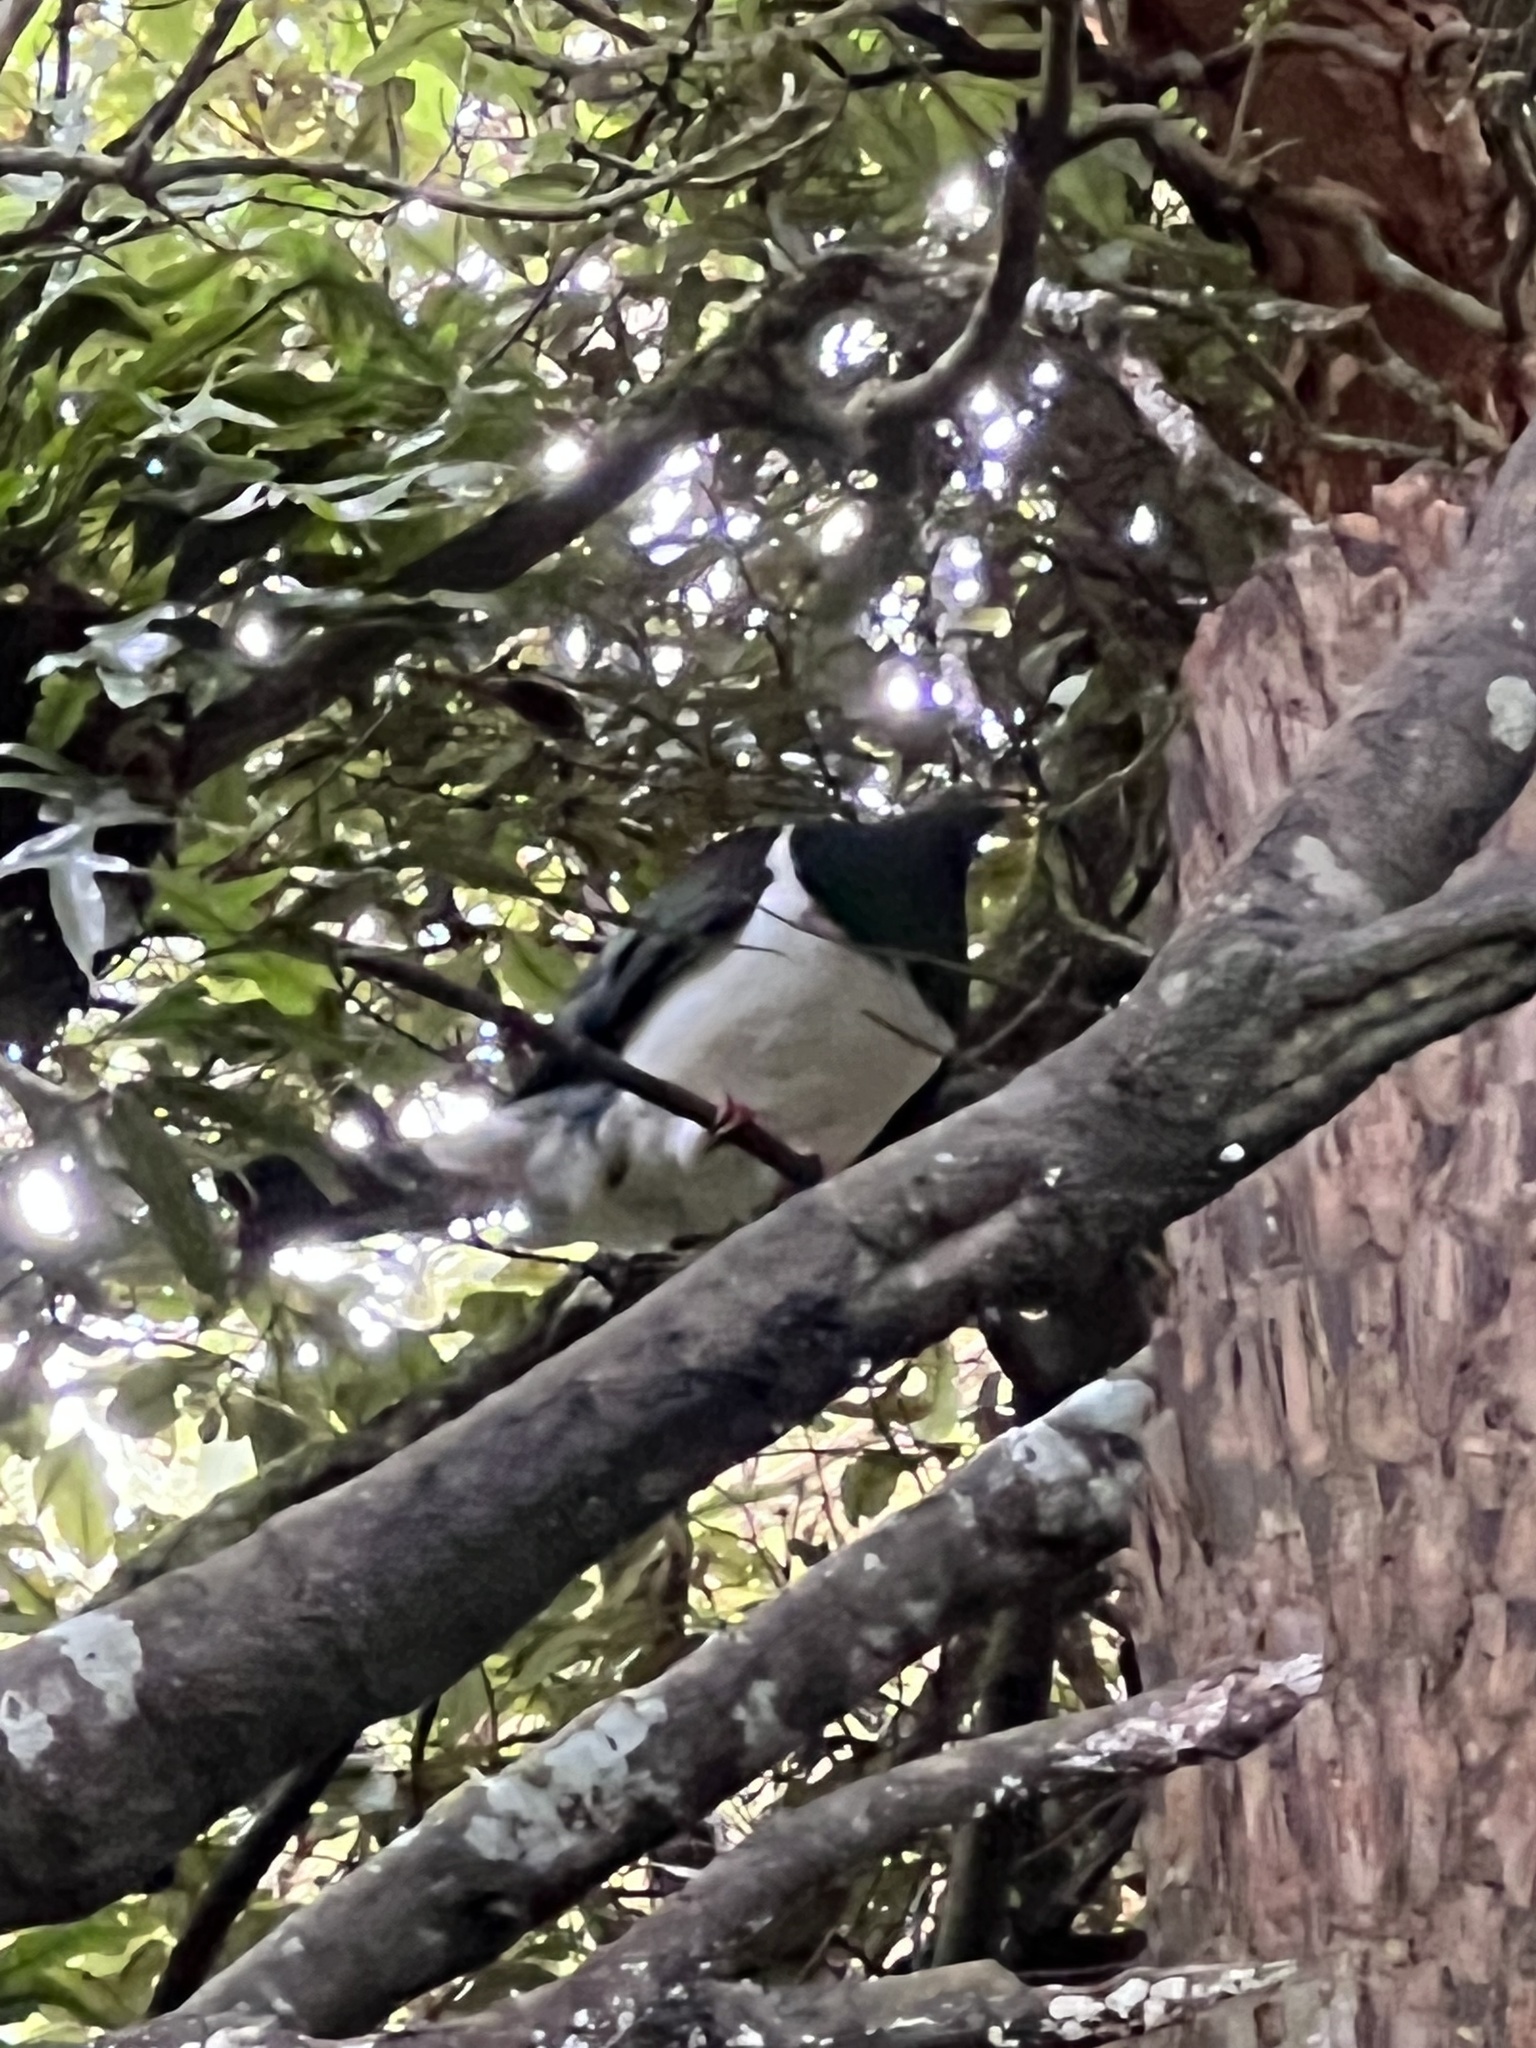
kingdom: Animalia
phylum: Chordata
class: Aves
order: Columbiformes
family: Columbidae
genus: Hemiphaga
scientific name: Hemiphaga novaeseelandiae
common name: New zealand pigeon
